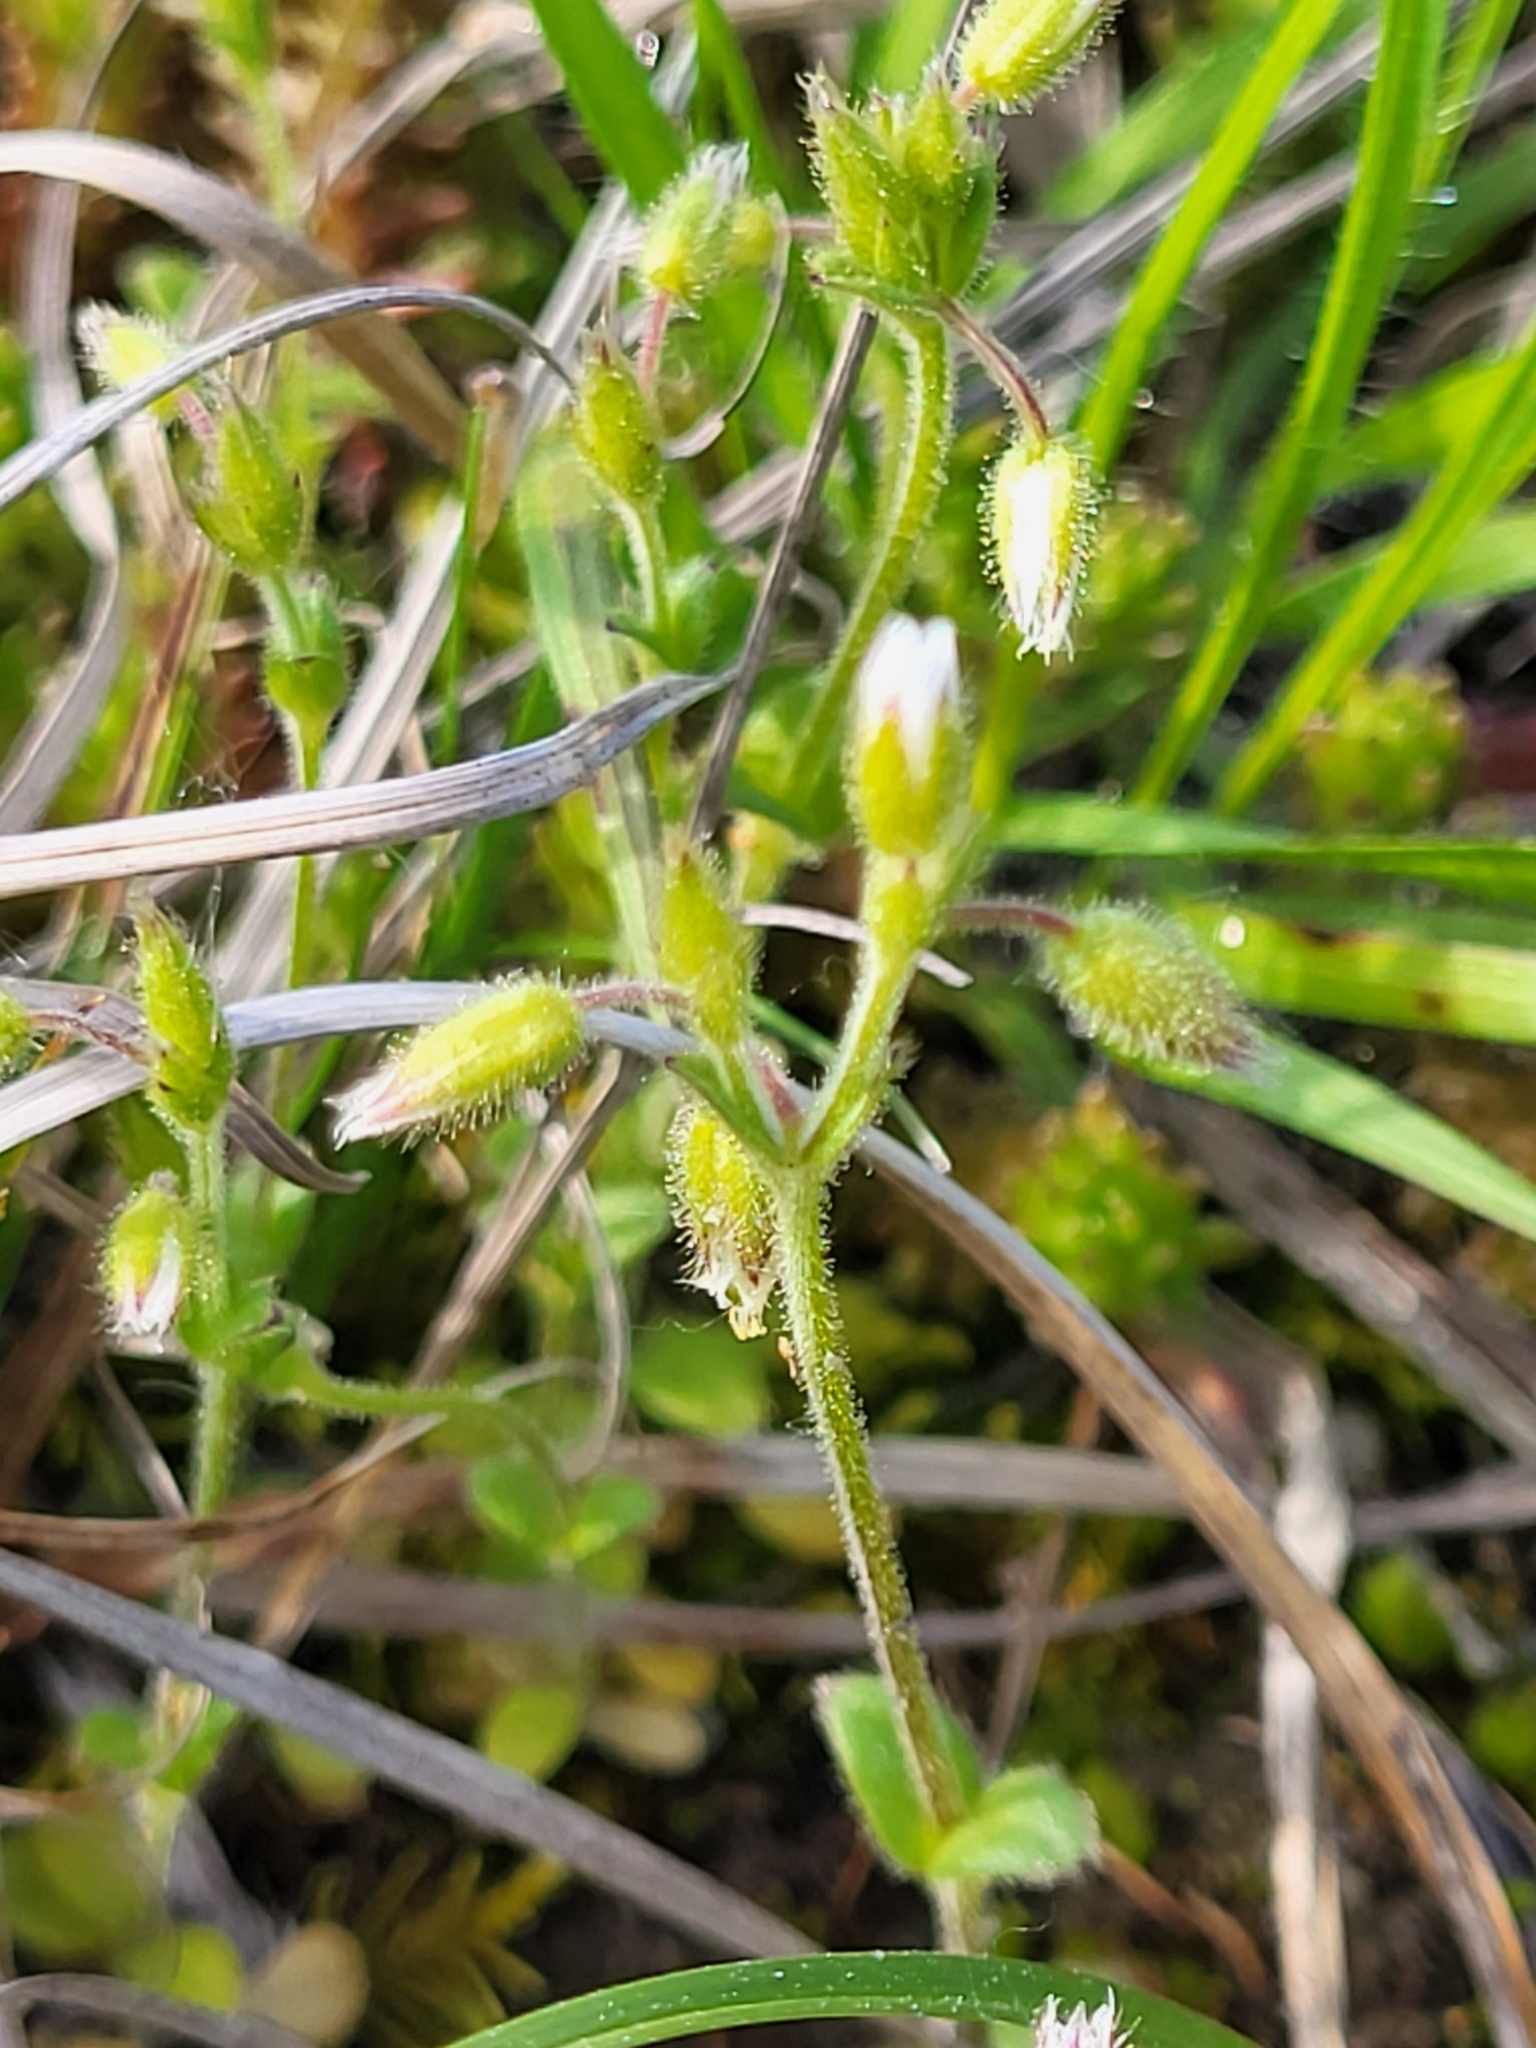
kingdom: Plantae
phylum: Tracheophyta
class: Magnoliopsida
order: Caryophyllales
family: Caryophyllaceae
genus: Cerastium
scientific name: Cerastium pumilum
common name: Dwarf mouse-ear
